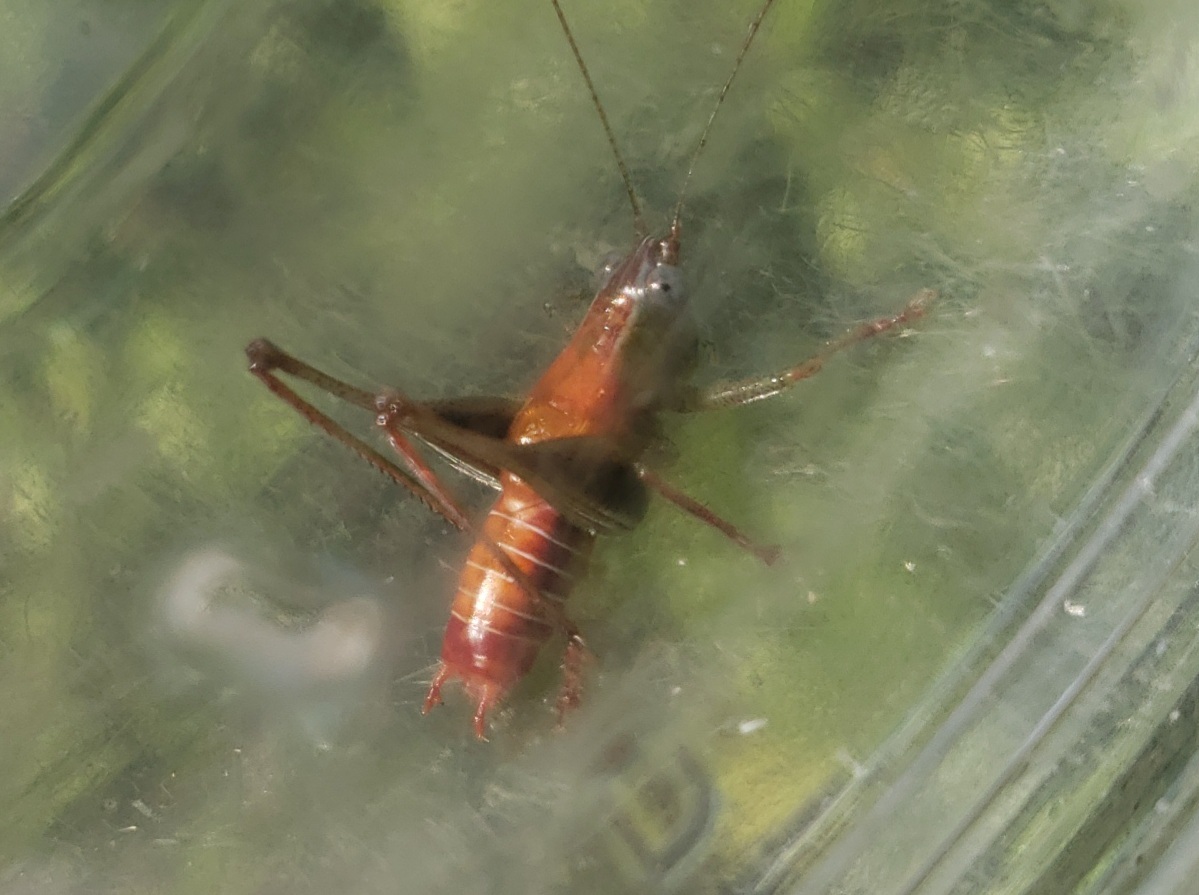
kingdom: Animalia
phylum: Arthropoda
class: Insecta
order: Orthoptera
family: Tettigoniidae
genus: Odontoxiphidium
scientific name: Odontoxiphidium apterum
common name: Wingless meadow katydid
